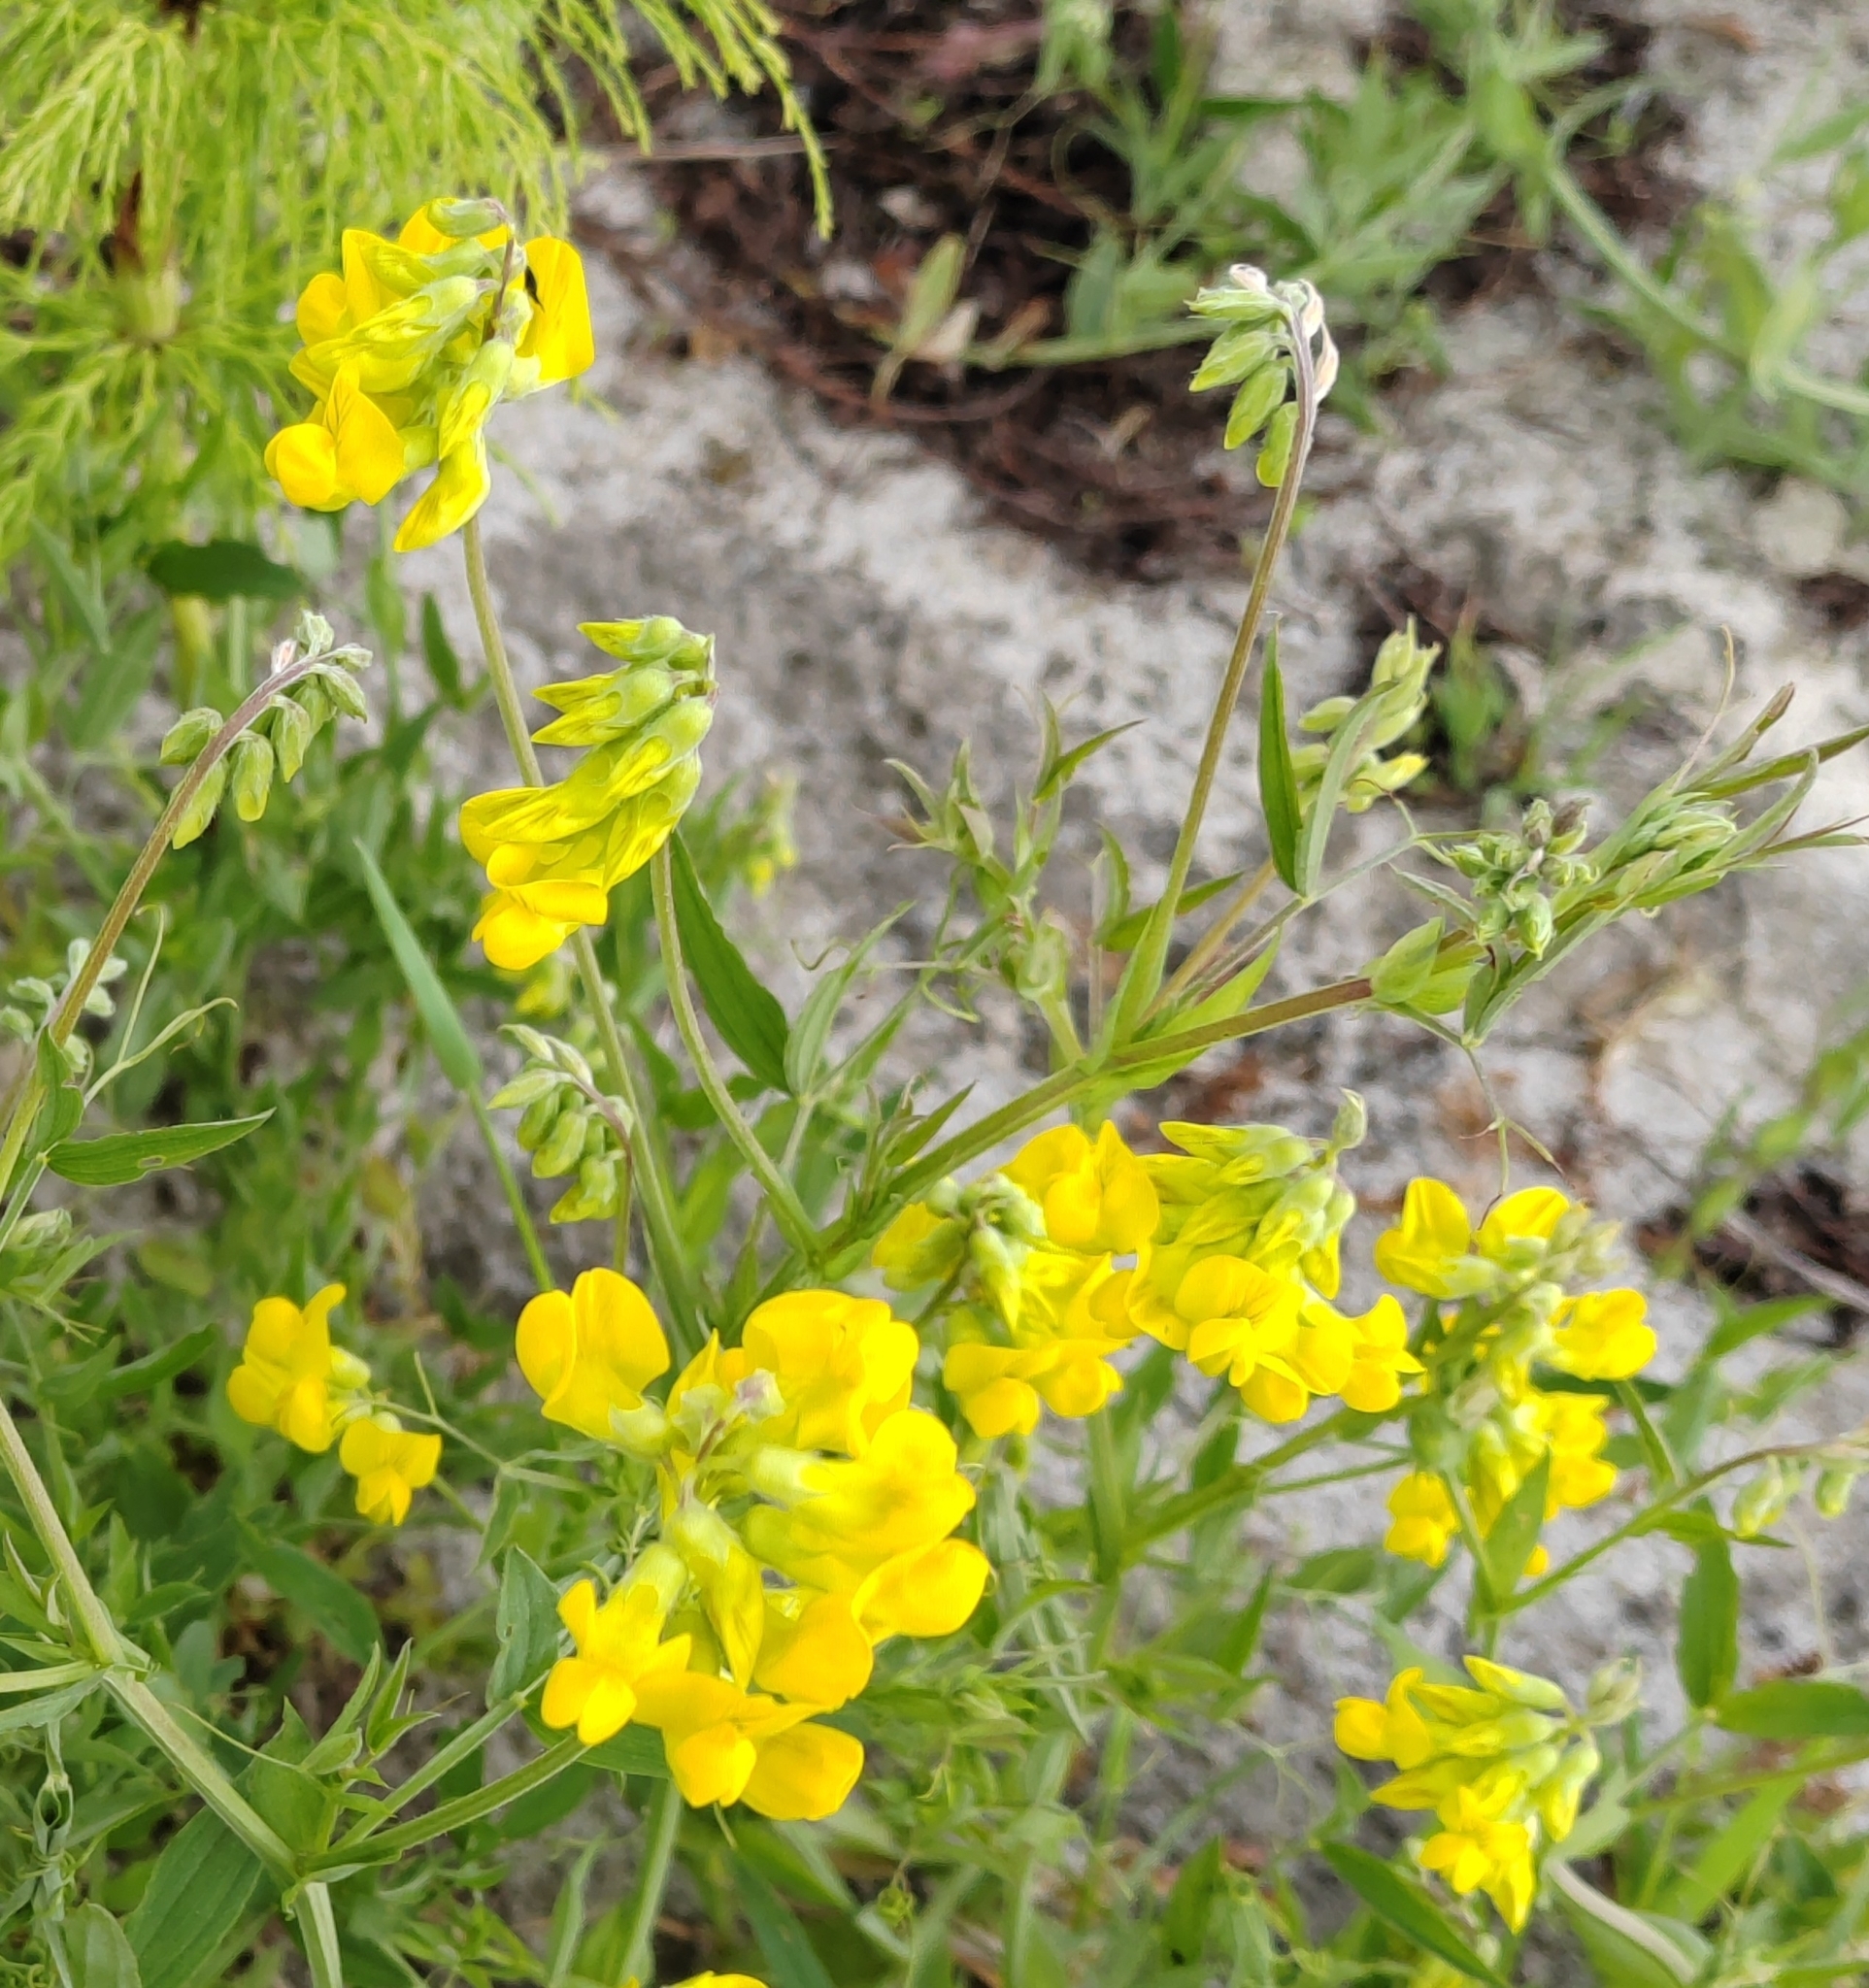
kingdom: Plantae
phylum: Tracheophyta
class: Magnoliopsida
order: Fabales
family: Fabaceae
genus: Lathyrus
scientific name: Lathyrus pratensis
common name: Meadow vetchling
